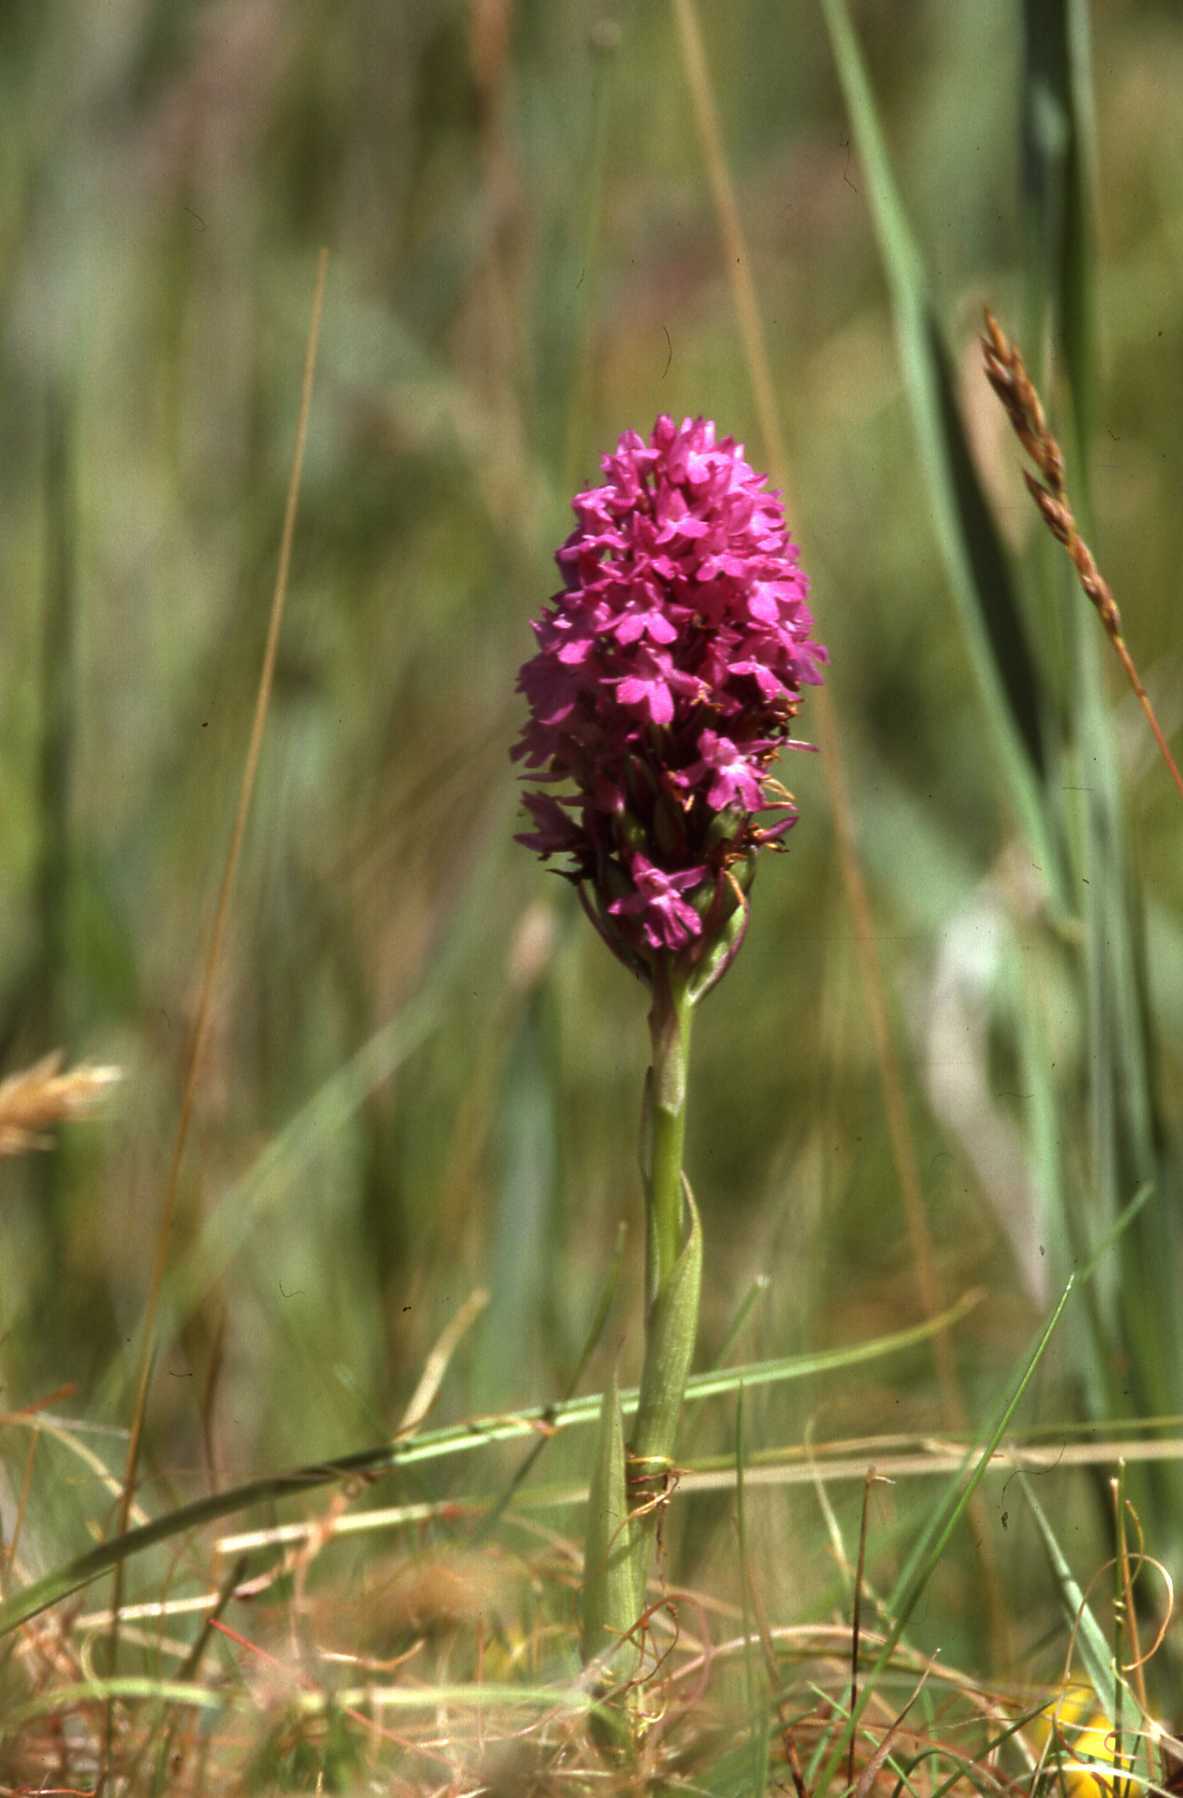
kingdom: Plantae
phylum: Tracheophyta
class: Liliopsida
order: Asparagales
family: Orchidaceae
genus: Anacamptis
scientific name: Anacamptis pyramidalis
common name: Pyramidal orchid
